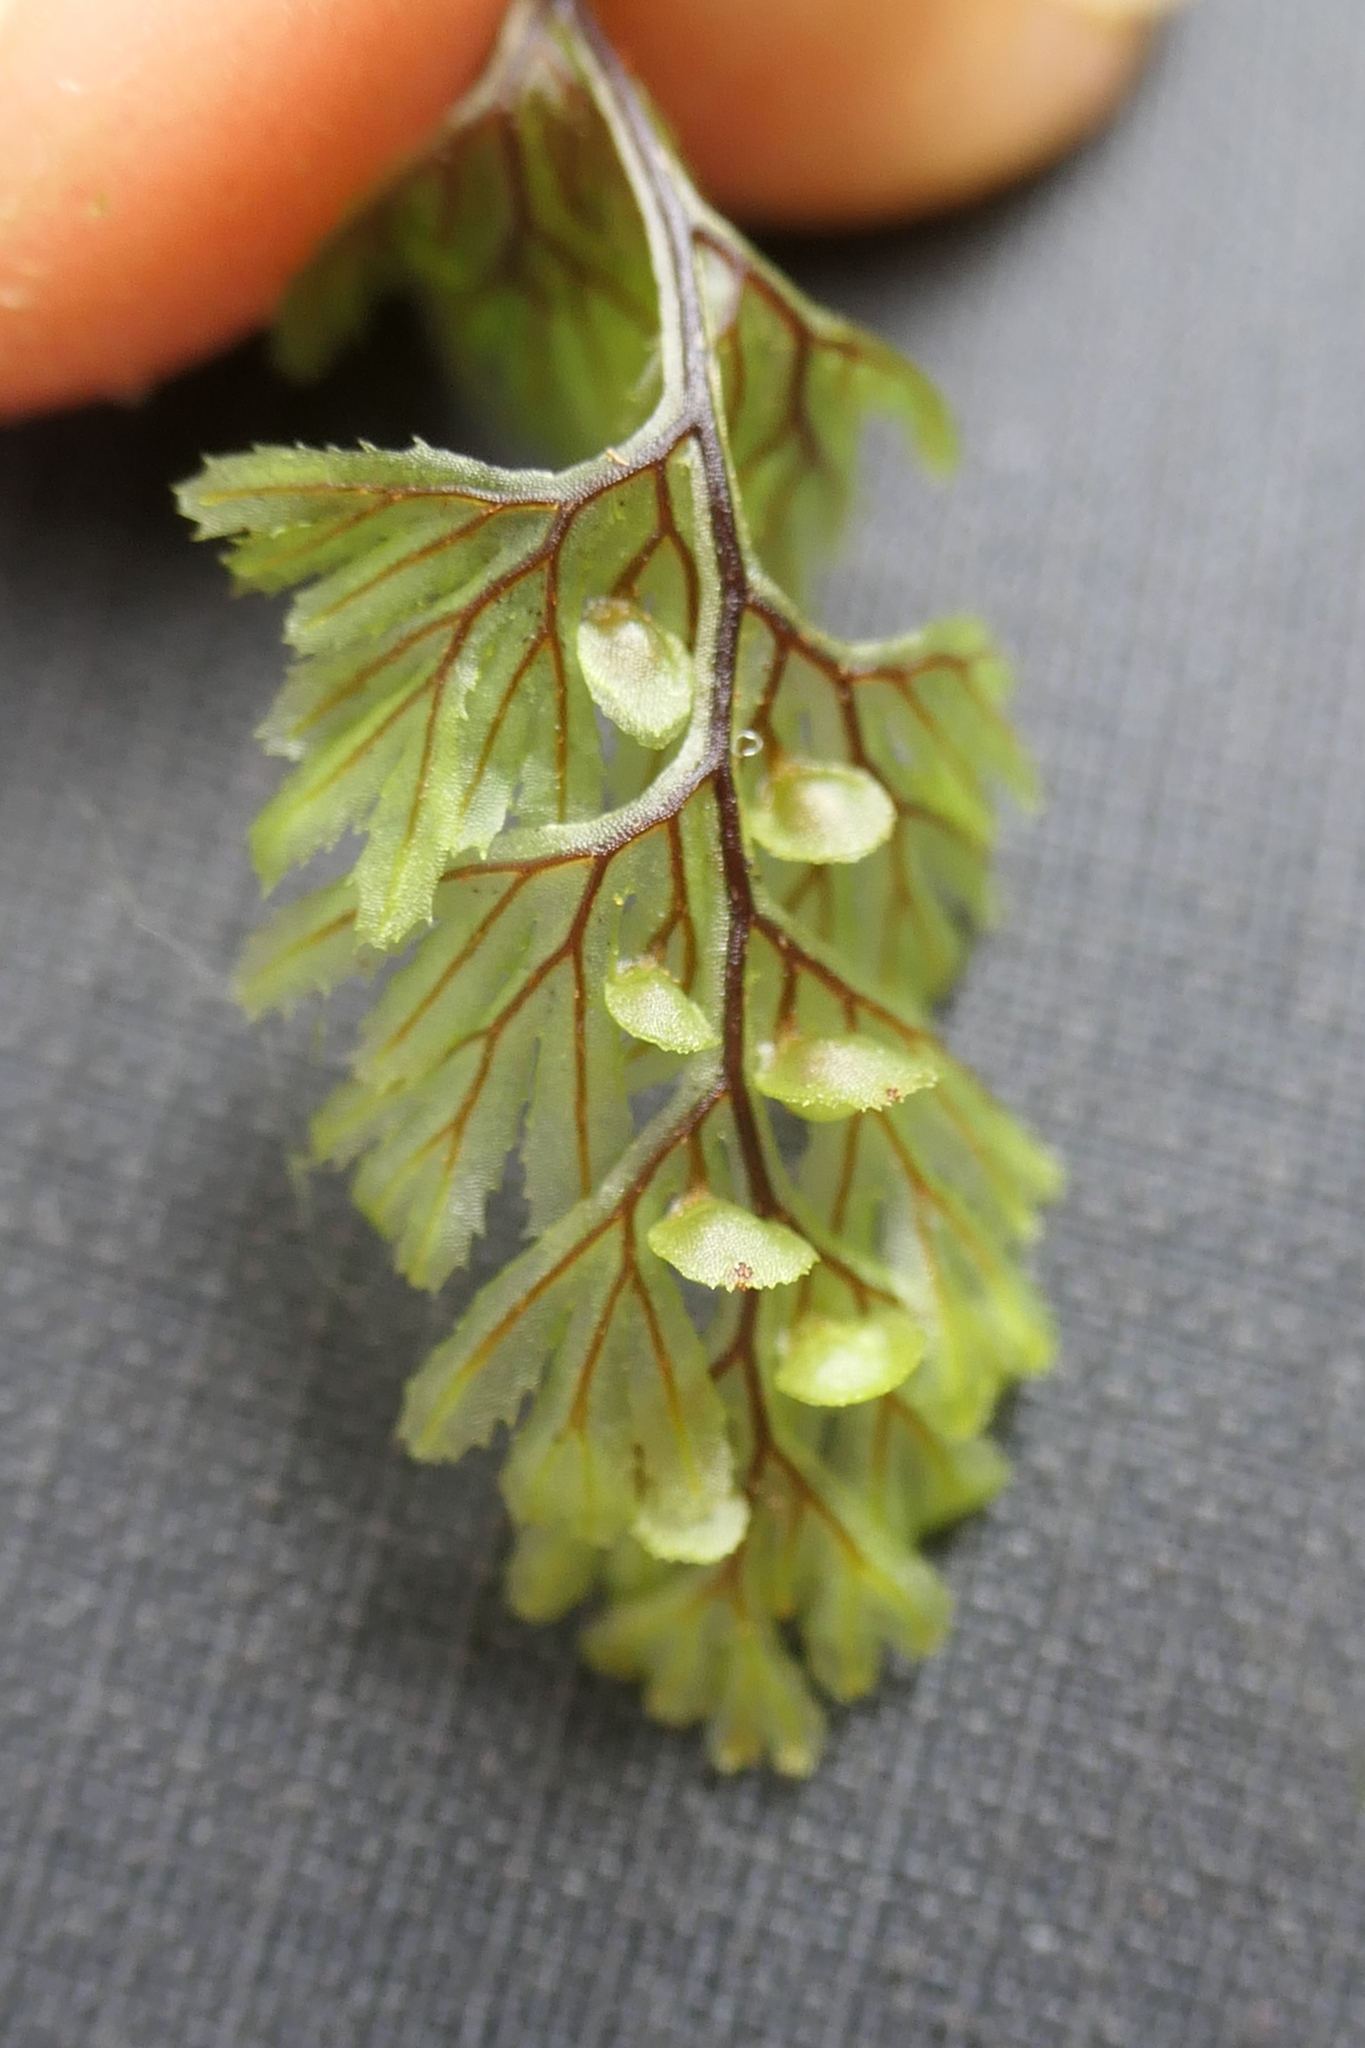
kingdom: Plantae
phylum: Tracheophyta
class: Polypodiopsida
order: Hymenophyllales
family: Hymenophyllaceae
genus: Hymenophyllum
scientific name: Hymenophyllum tunbrigense
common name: Tunbridge filmy fern
